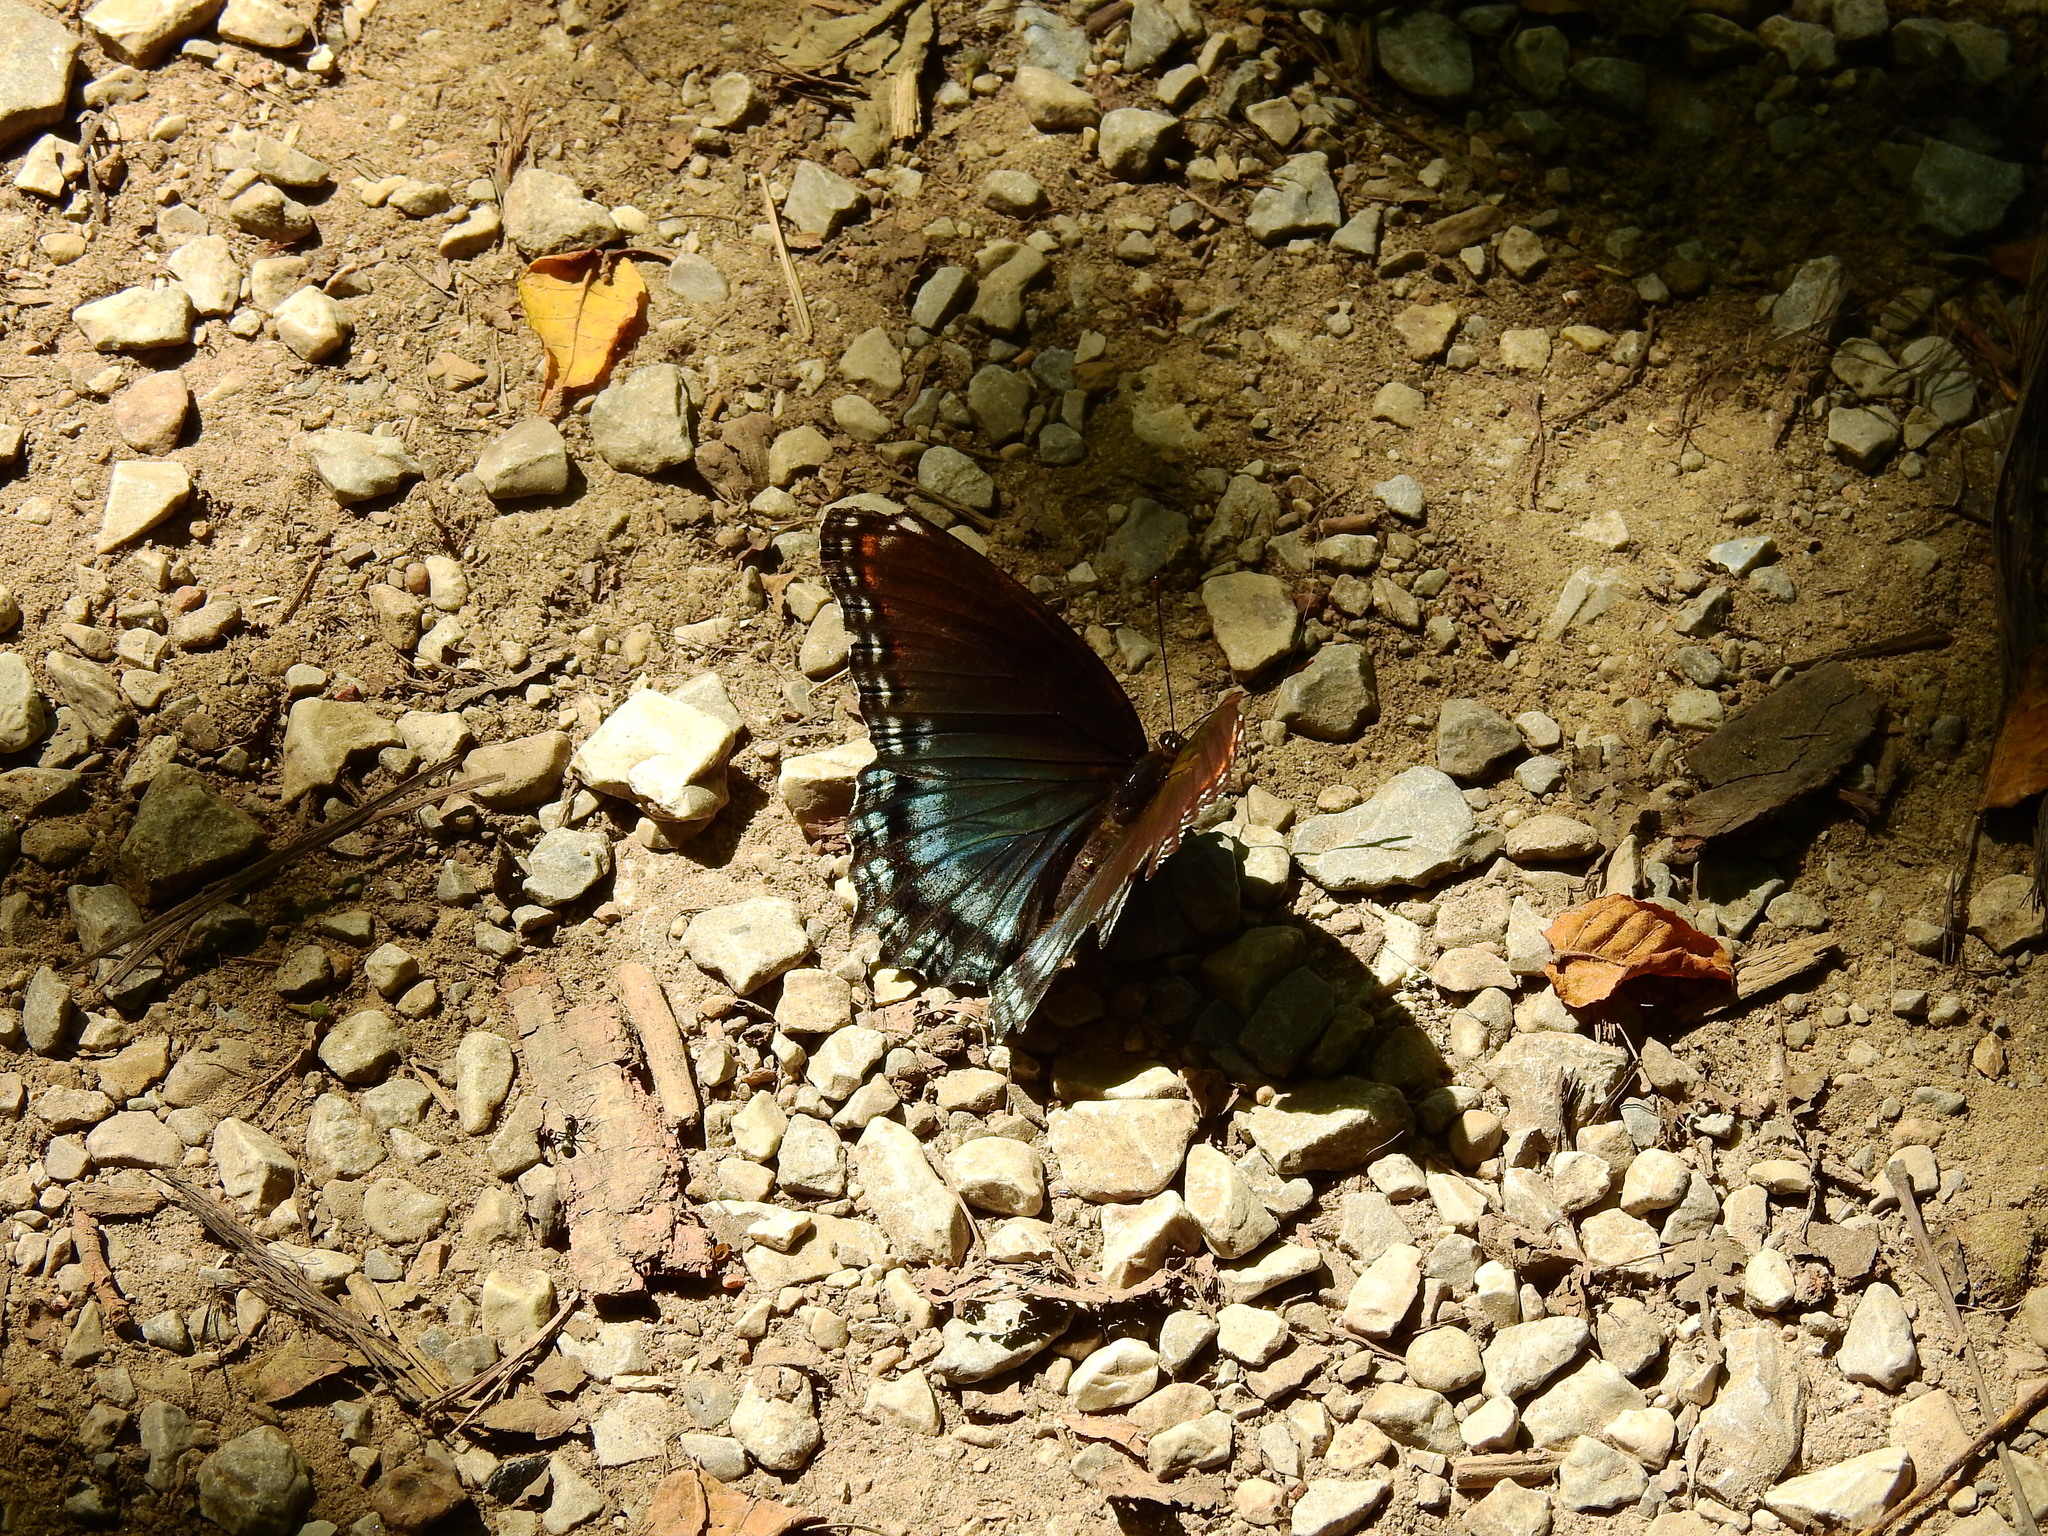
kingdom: Animalia
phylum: Arthropoda
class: Insecta
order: Lepidoptera
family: Nymphalidae
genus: Limenitis
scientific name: Limenitis astyanax
